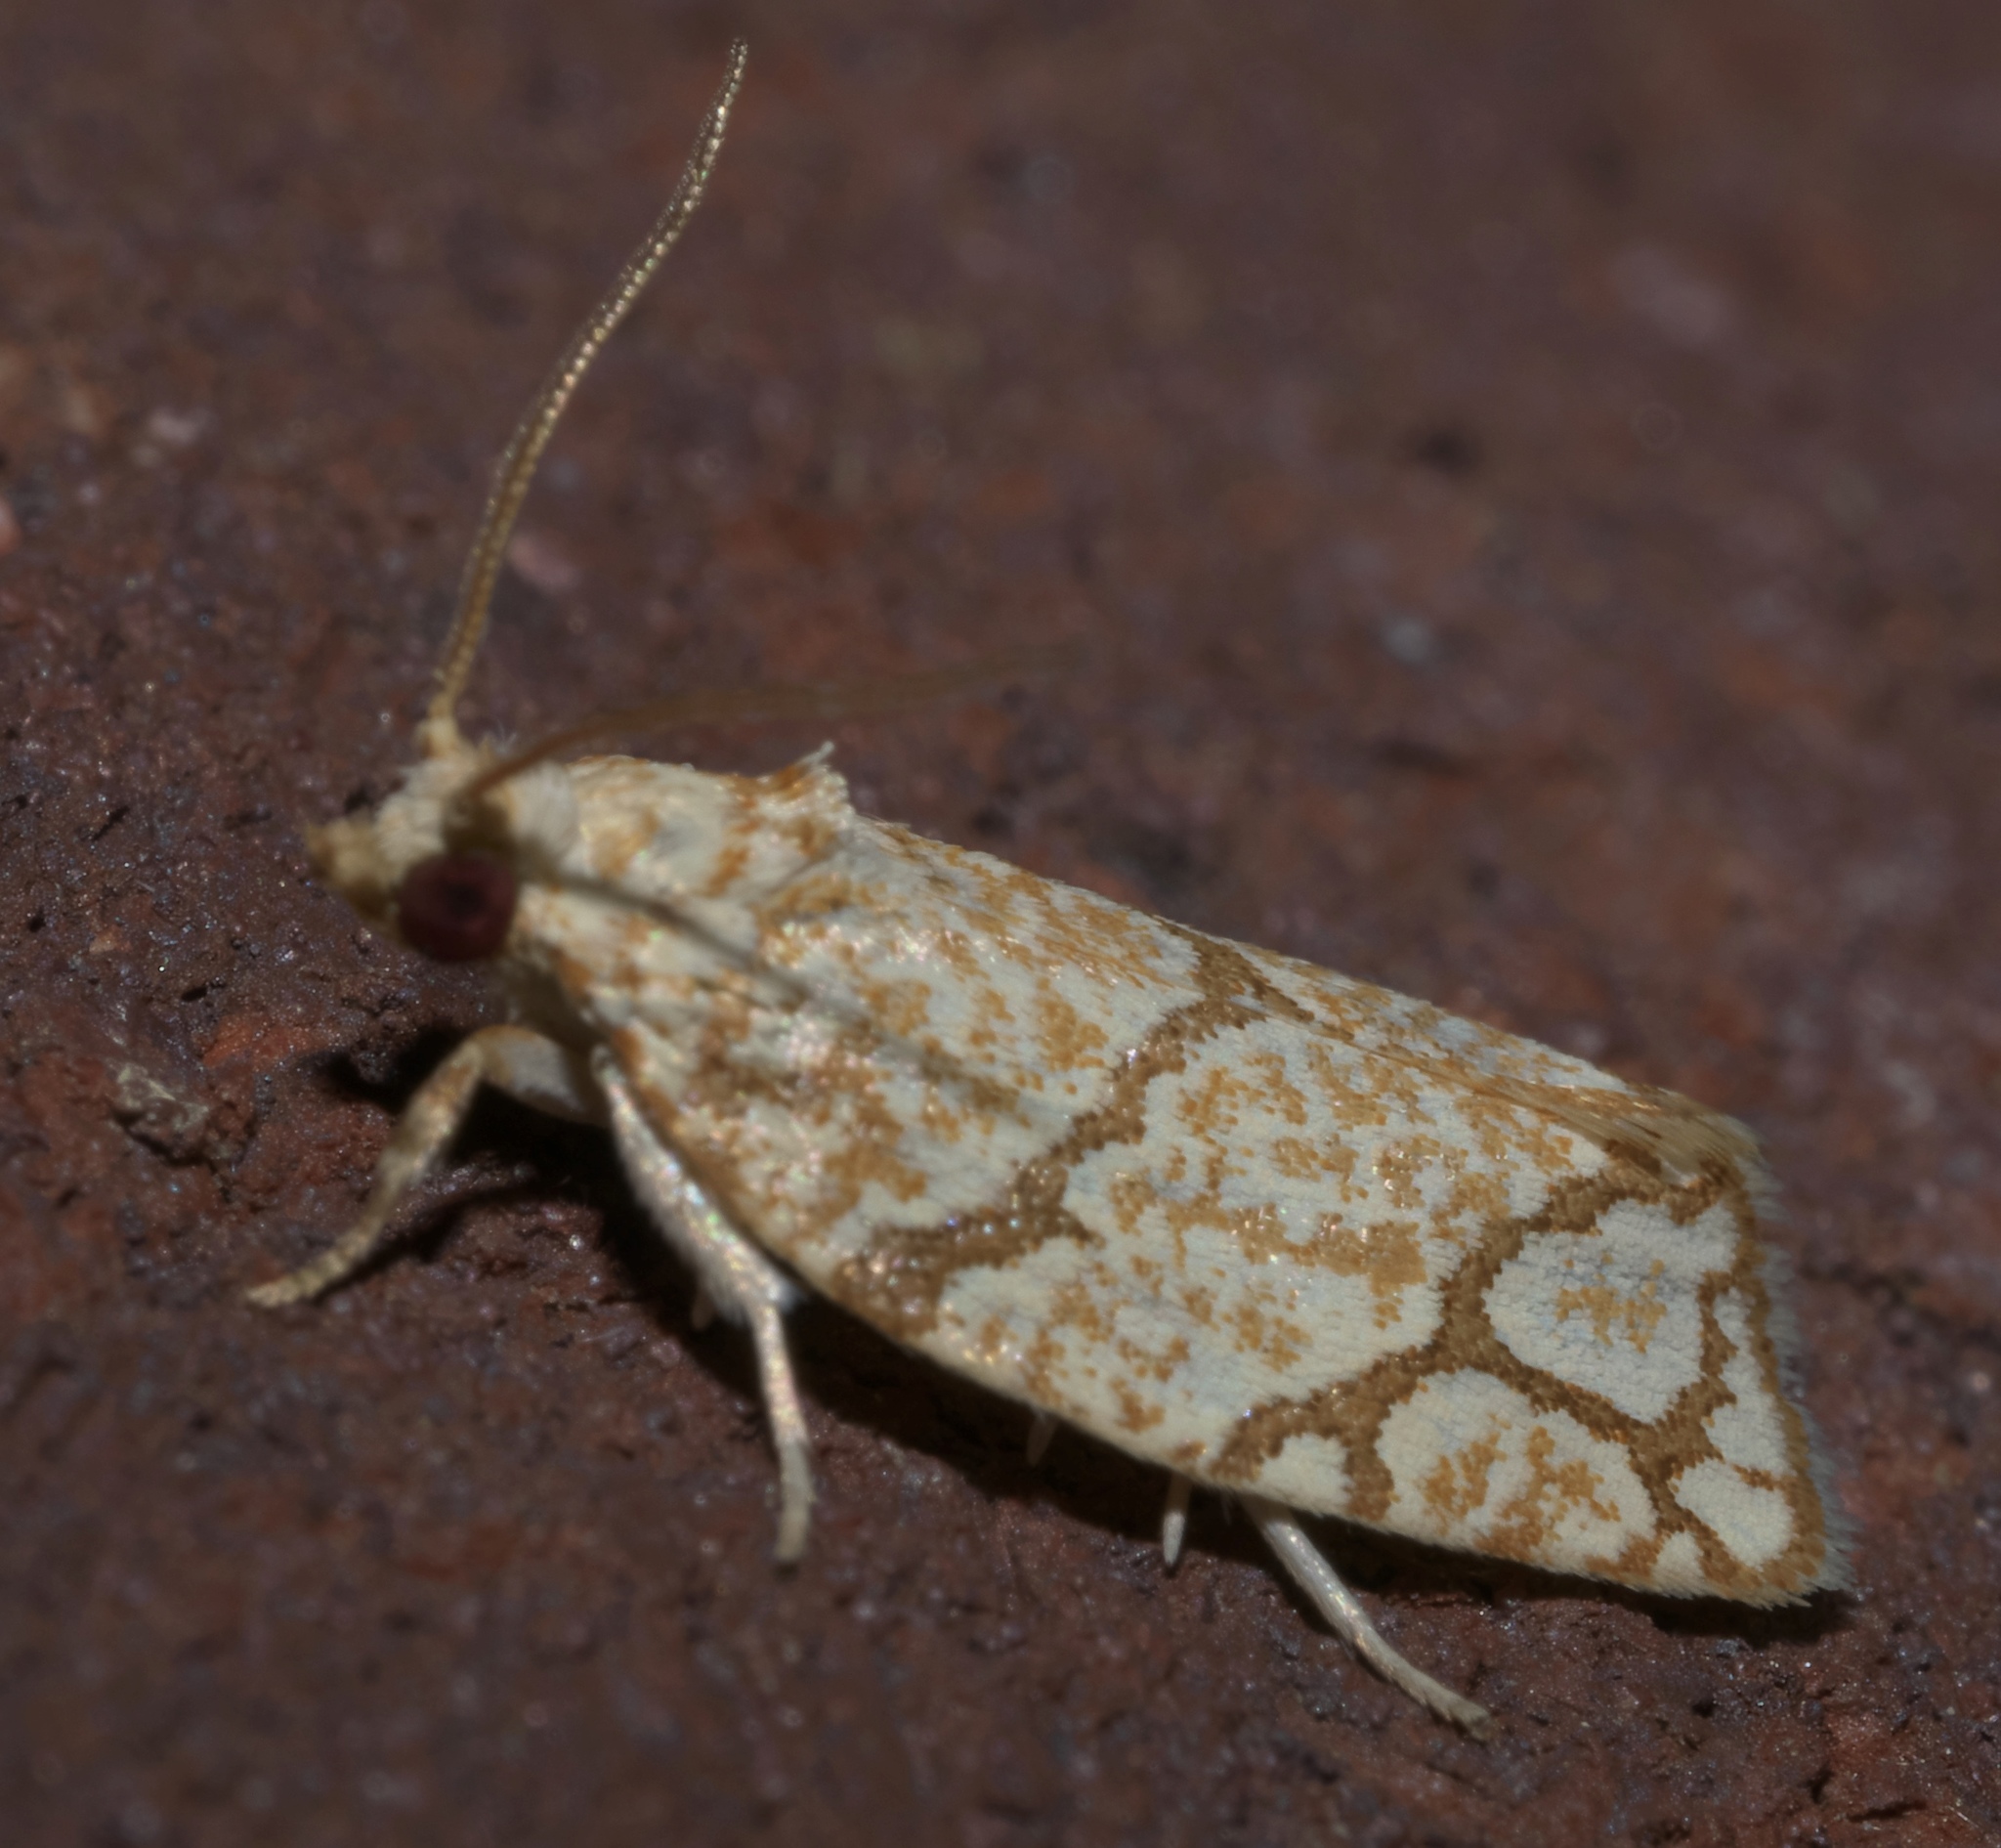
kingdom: Animalia
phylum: Arthropoda
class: Insecta
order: Lepidoptera
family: Tortricidae
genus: Argyrotaenia
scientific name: Argyrotaenia quercifoliana
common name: Yellow-winged oak leafroller moth
